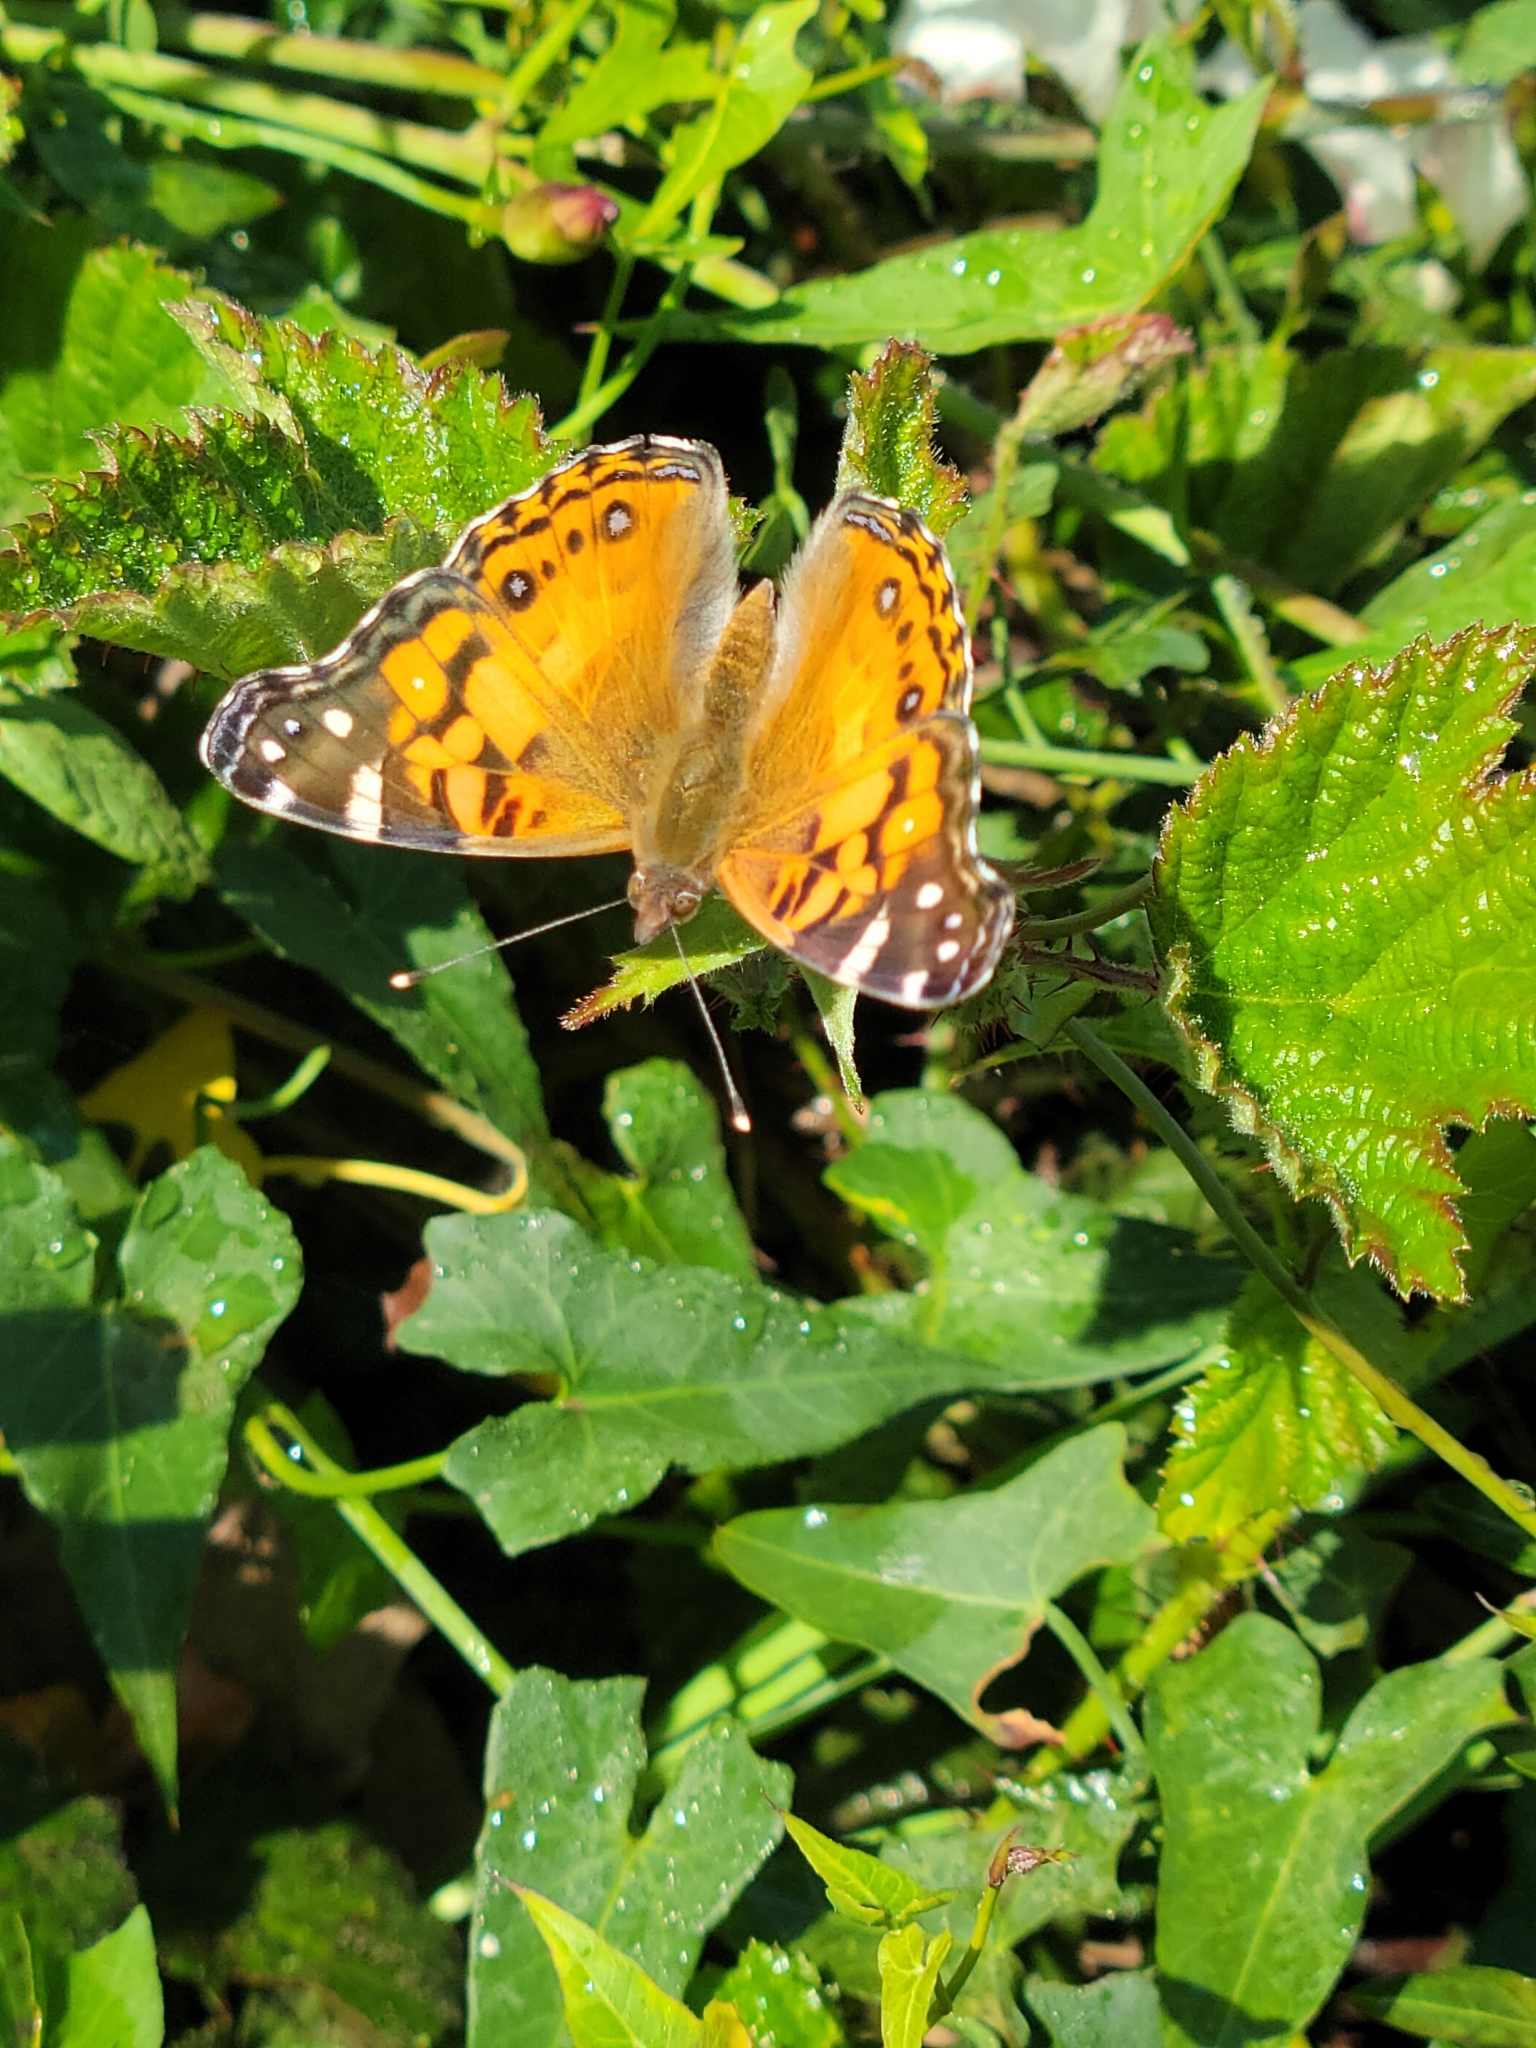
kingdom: Animalia
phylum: Arthropoda
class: Insecta
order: Lepidoptera
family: Nymphalidae
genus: Vanessa
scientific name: Vanessa virginiensis
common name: American lady
